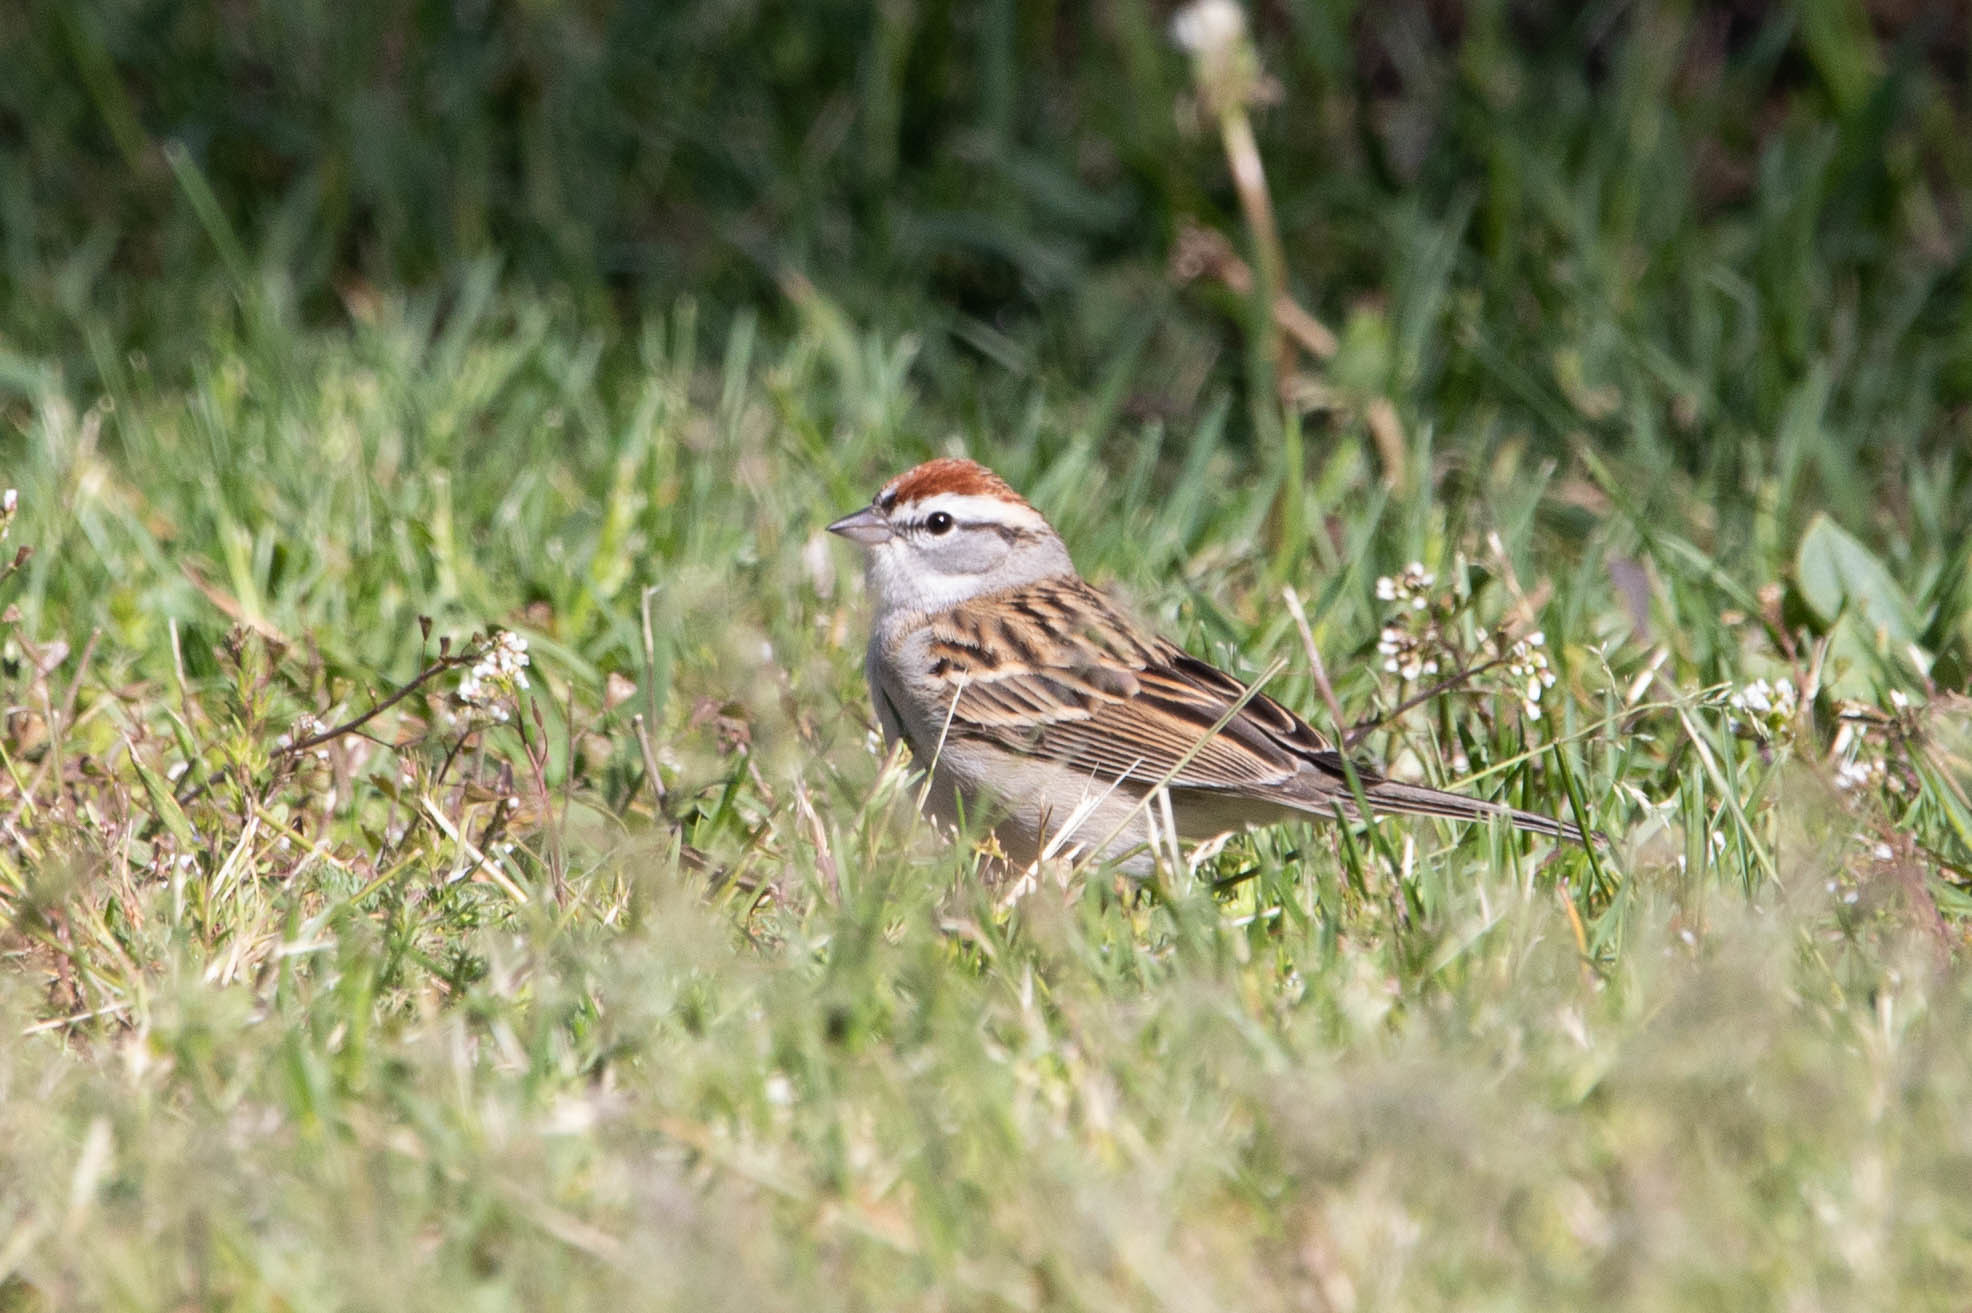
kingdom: Animalia
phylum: Chordata
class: Aves
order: Passeriformes
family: Passerellidae
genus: Spizella
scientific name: Spizella passerina
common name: Chipping sparrow
